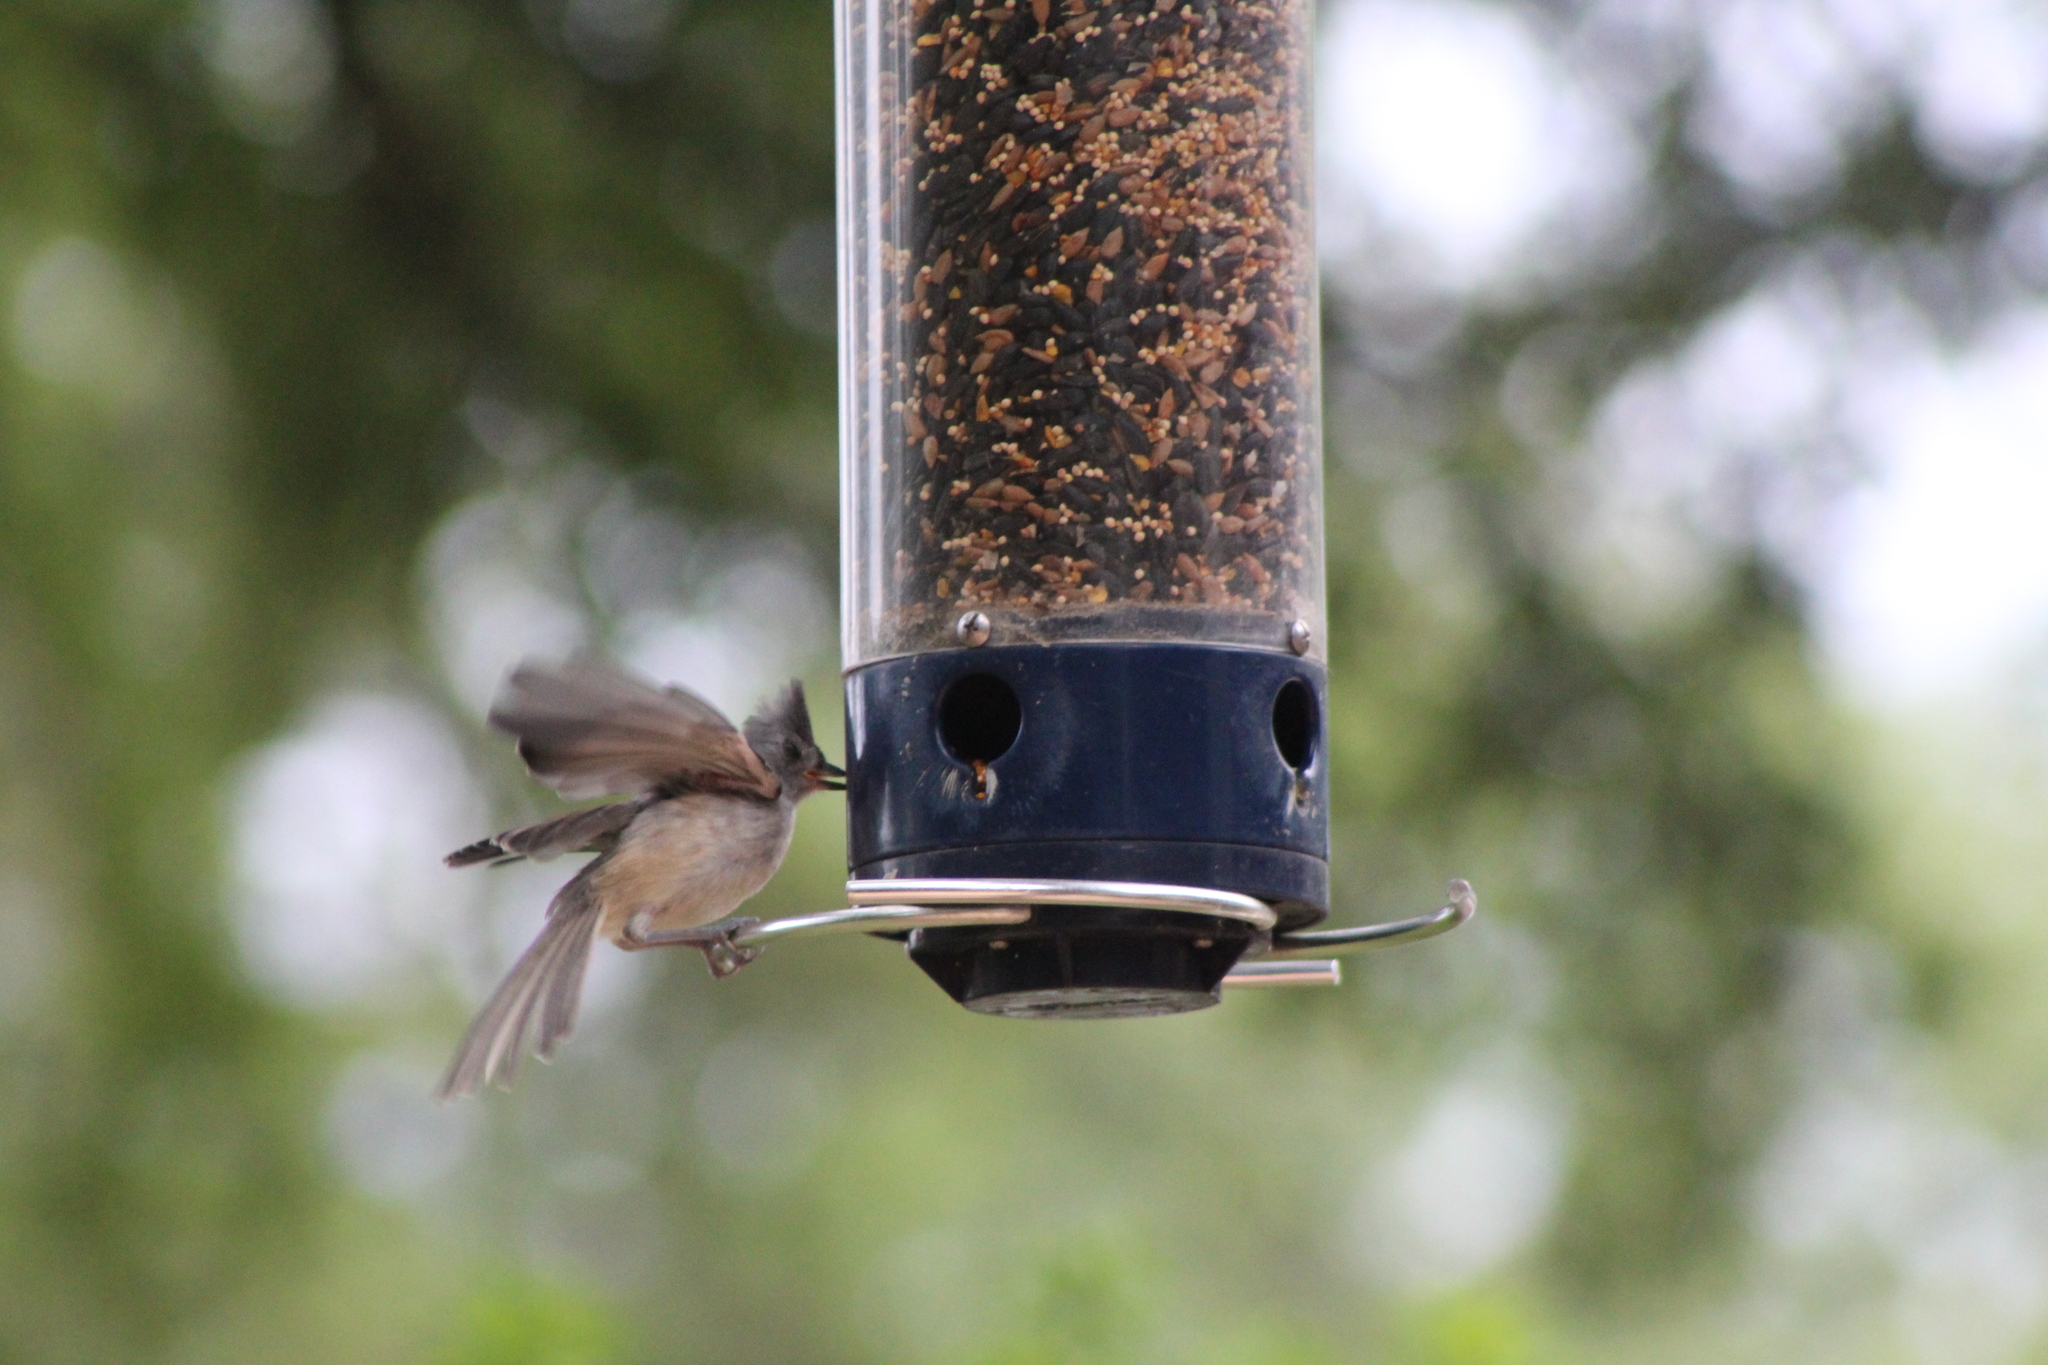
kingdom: Animalia
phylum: Chordata
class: Aves
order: Passeriformes
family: Paridae
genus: Baeolophus
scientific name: Baeolophus bicolor
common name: Tufted titmouse
